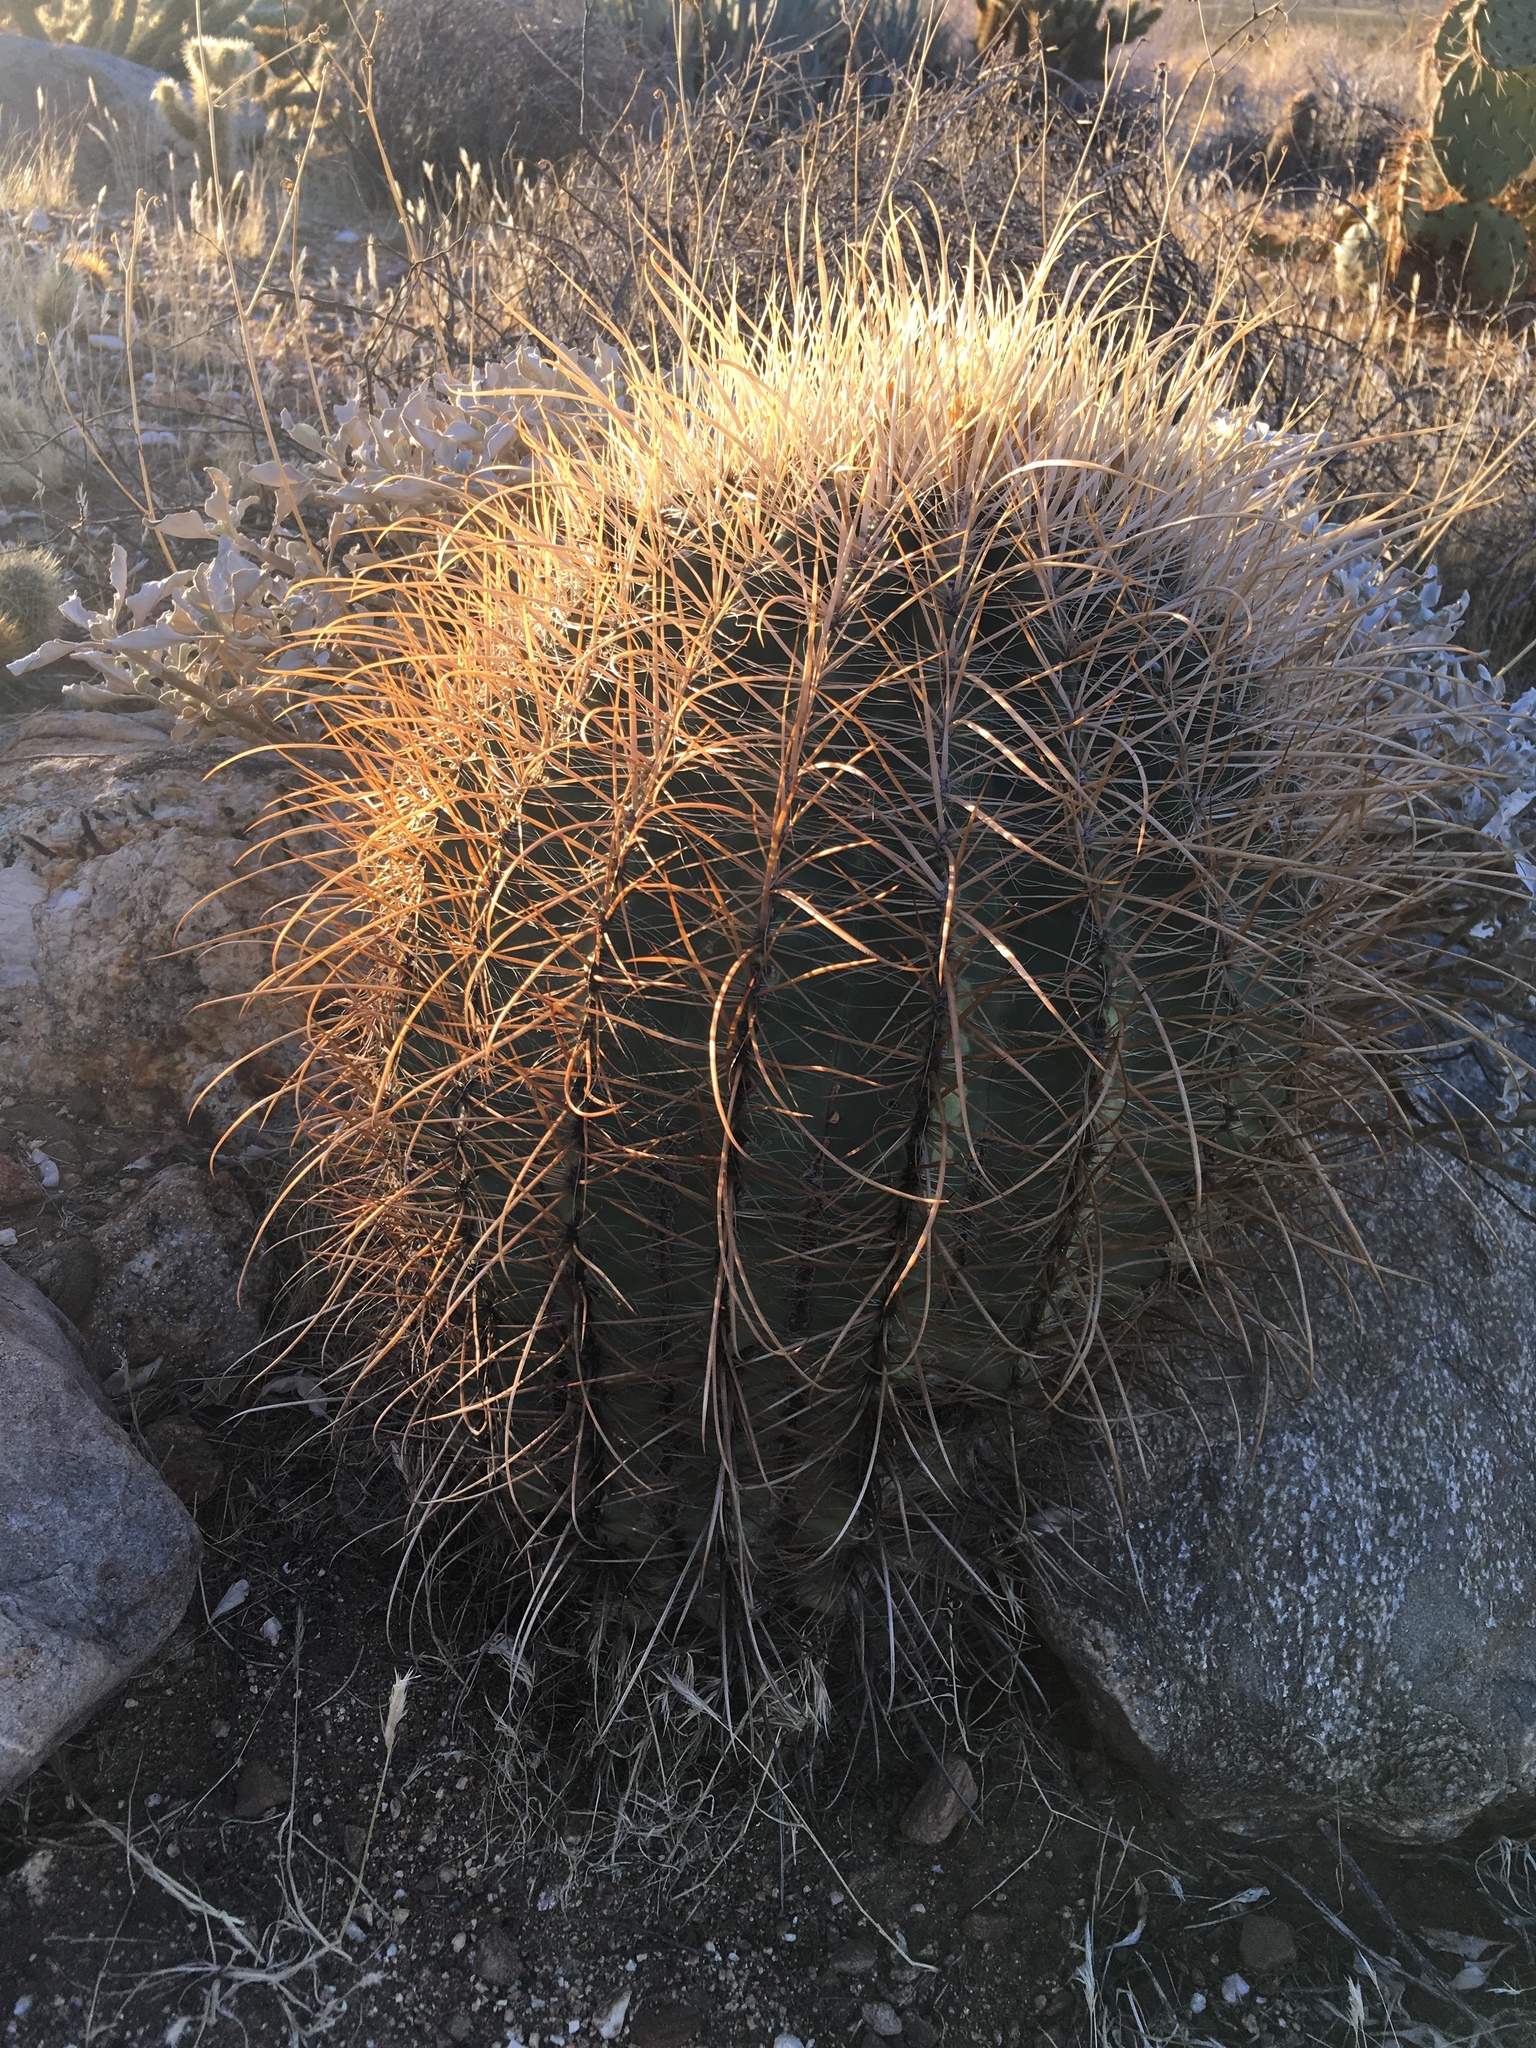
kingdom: Plantae
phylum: Tracheophyta
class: Magnoliopsida
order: Caryophyllales
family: Cactaceae
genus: Ferocactus
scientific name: Ferocactus cylindraceus
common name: California barrel cactus
